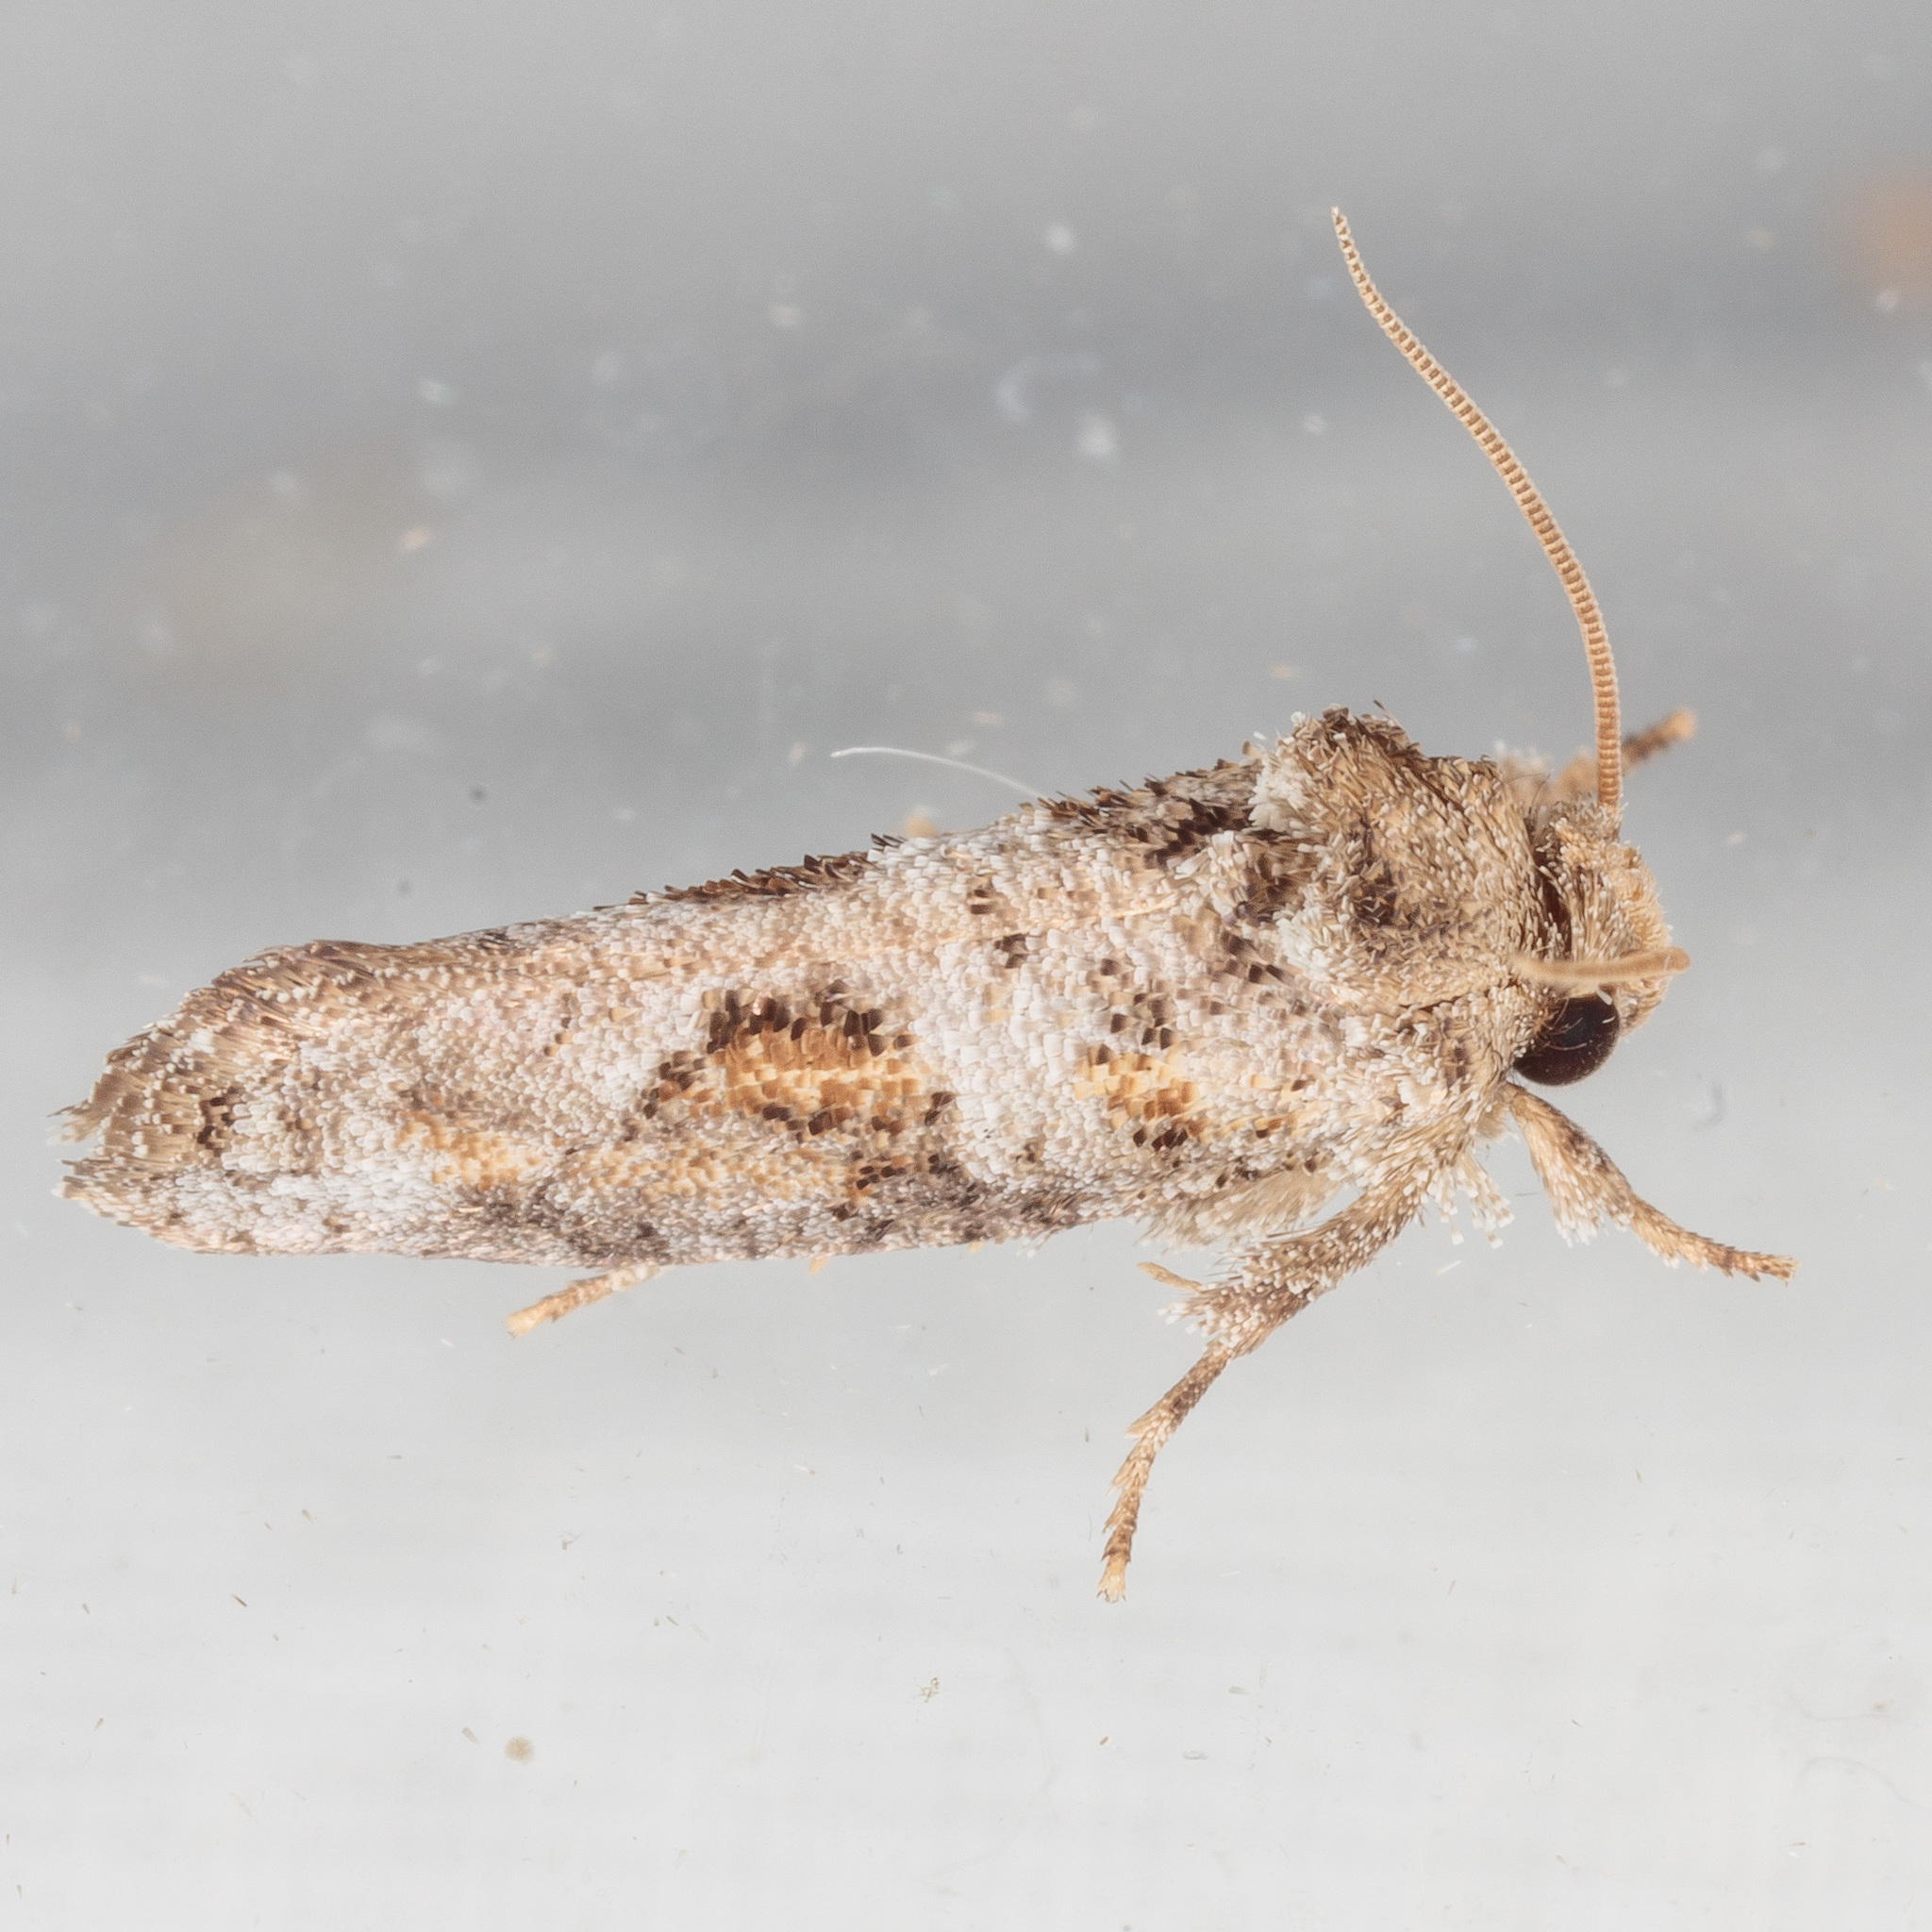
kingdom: Animalia
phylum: Arthropoda
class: Insecta
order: Lepidoptera
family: Tineidae
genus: Acrolophus
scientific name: Acrolophus piger
